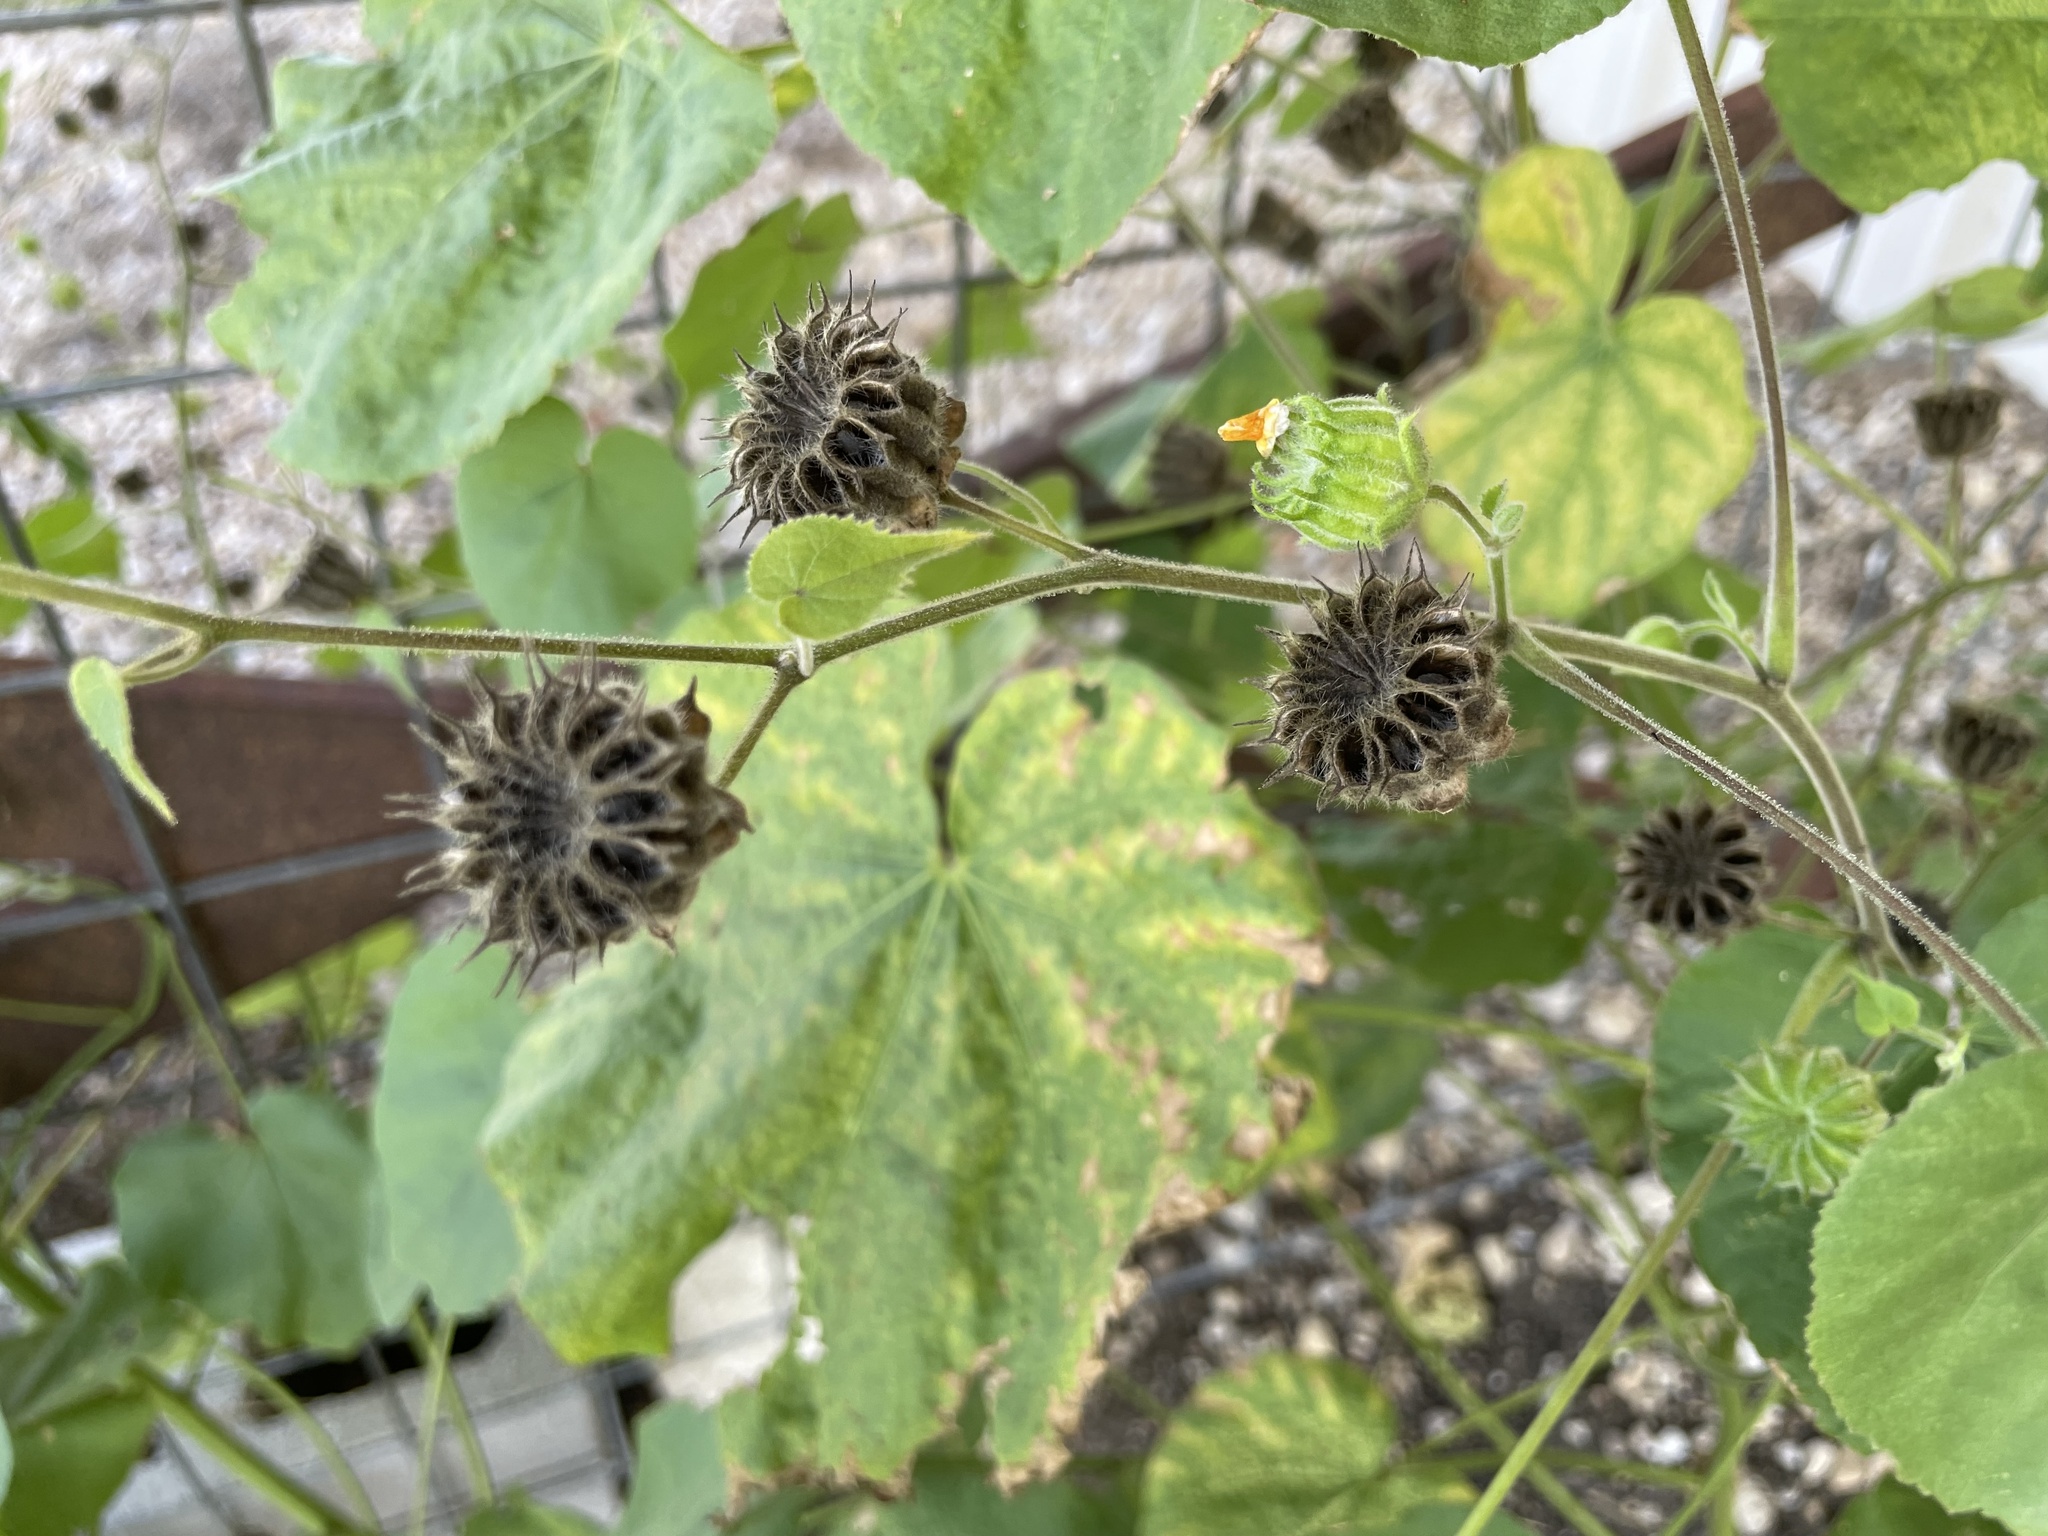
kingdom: Plantae
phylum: Tracheophyta
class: Magnoliopsida
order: Malvales
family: Malvaceae
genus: Abutilon
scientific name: Abutilon theophrasti
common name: Velvetleaf
